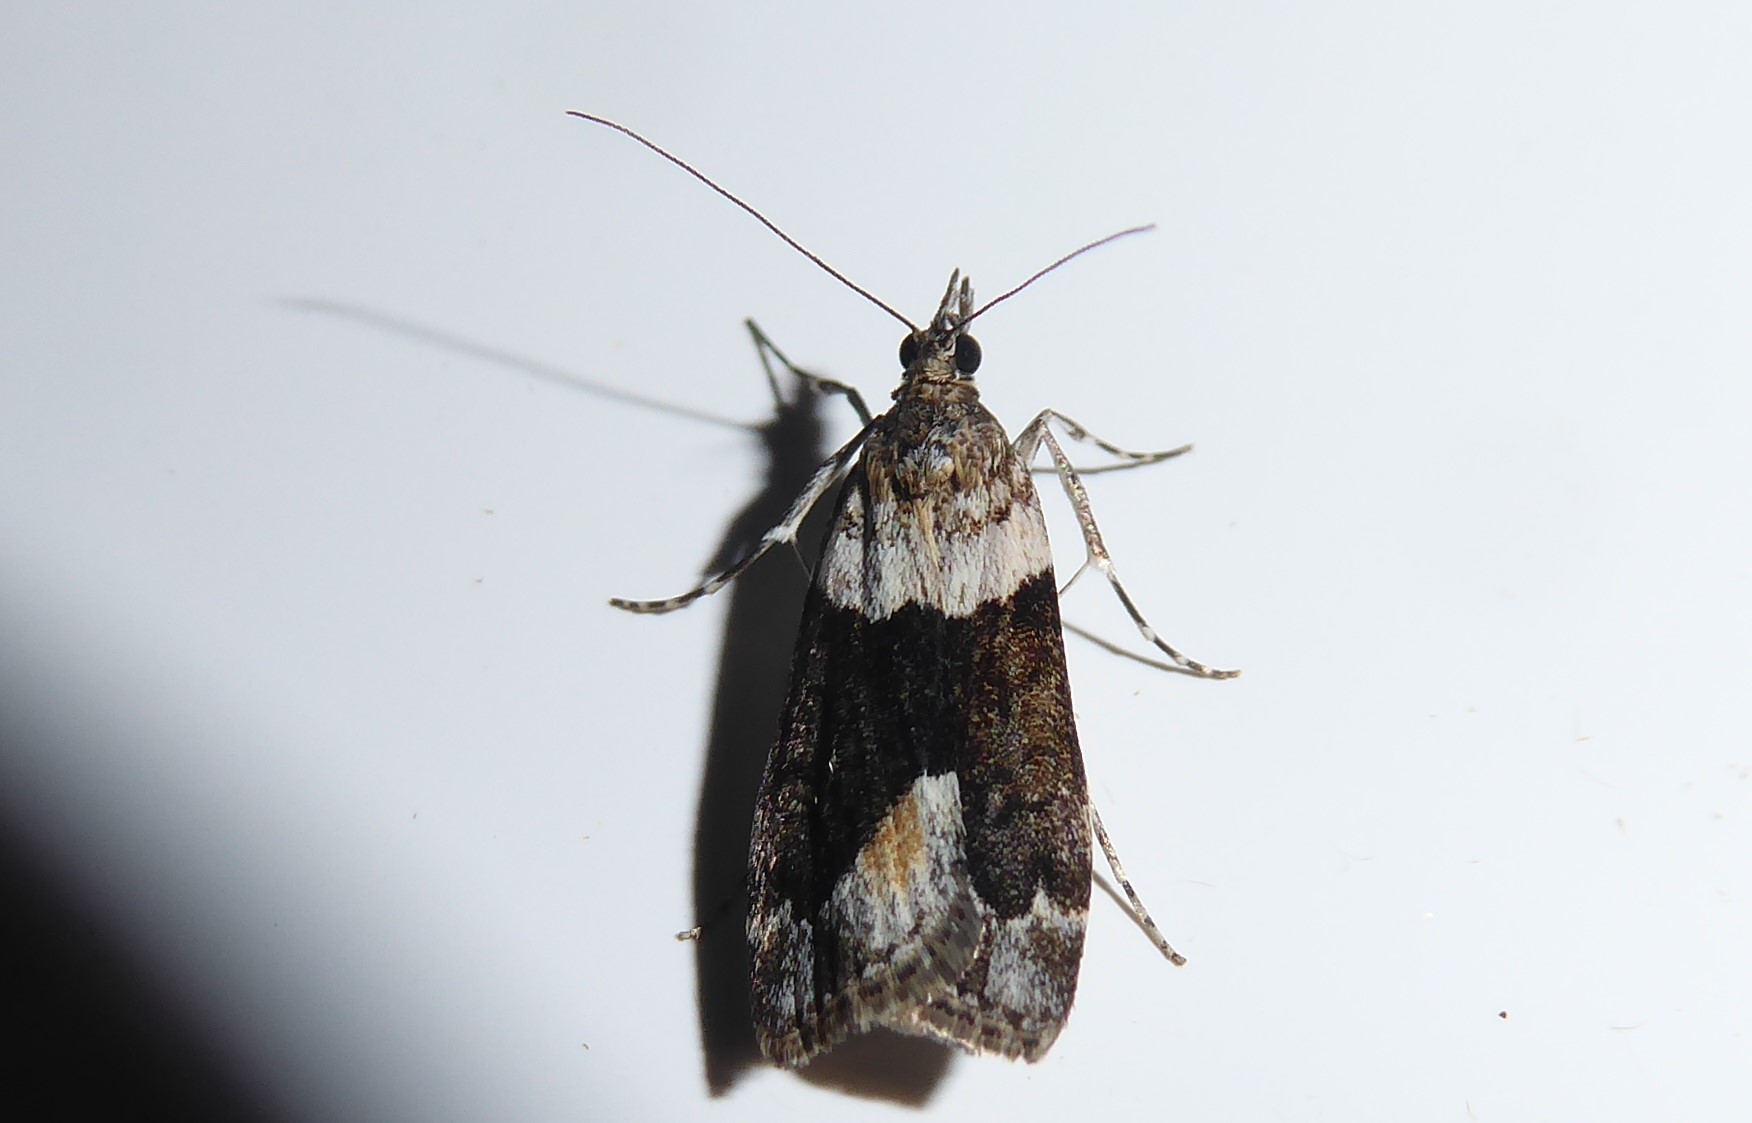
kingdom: Animalia
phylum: Arthropoda
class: Insecta
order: Lepidoptera
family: Crambidae
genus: Eudonia
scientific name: Eudonia submarginalis
